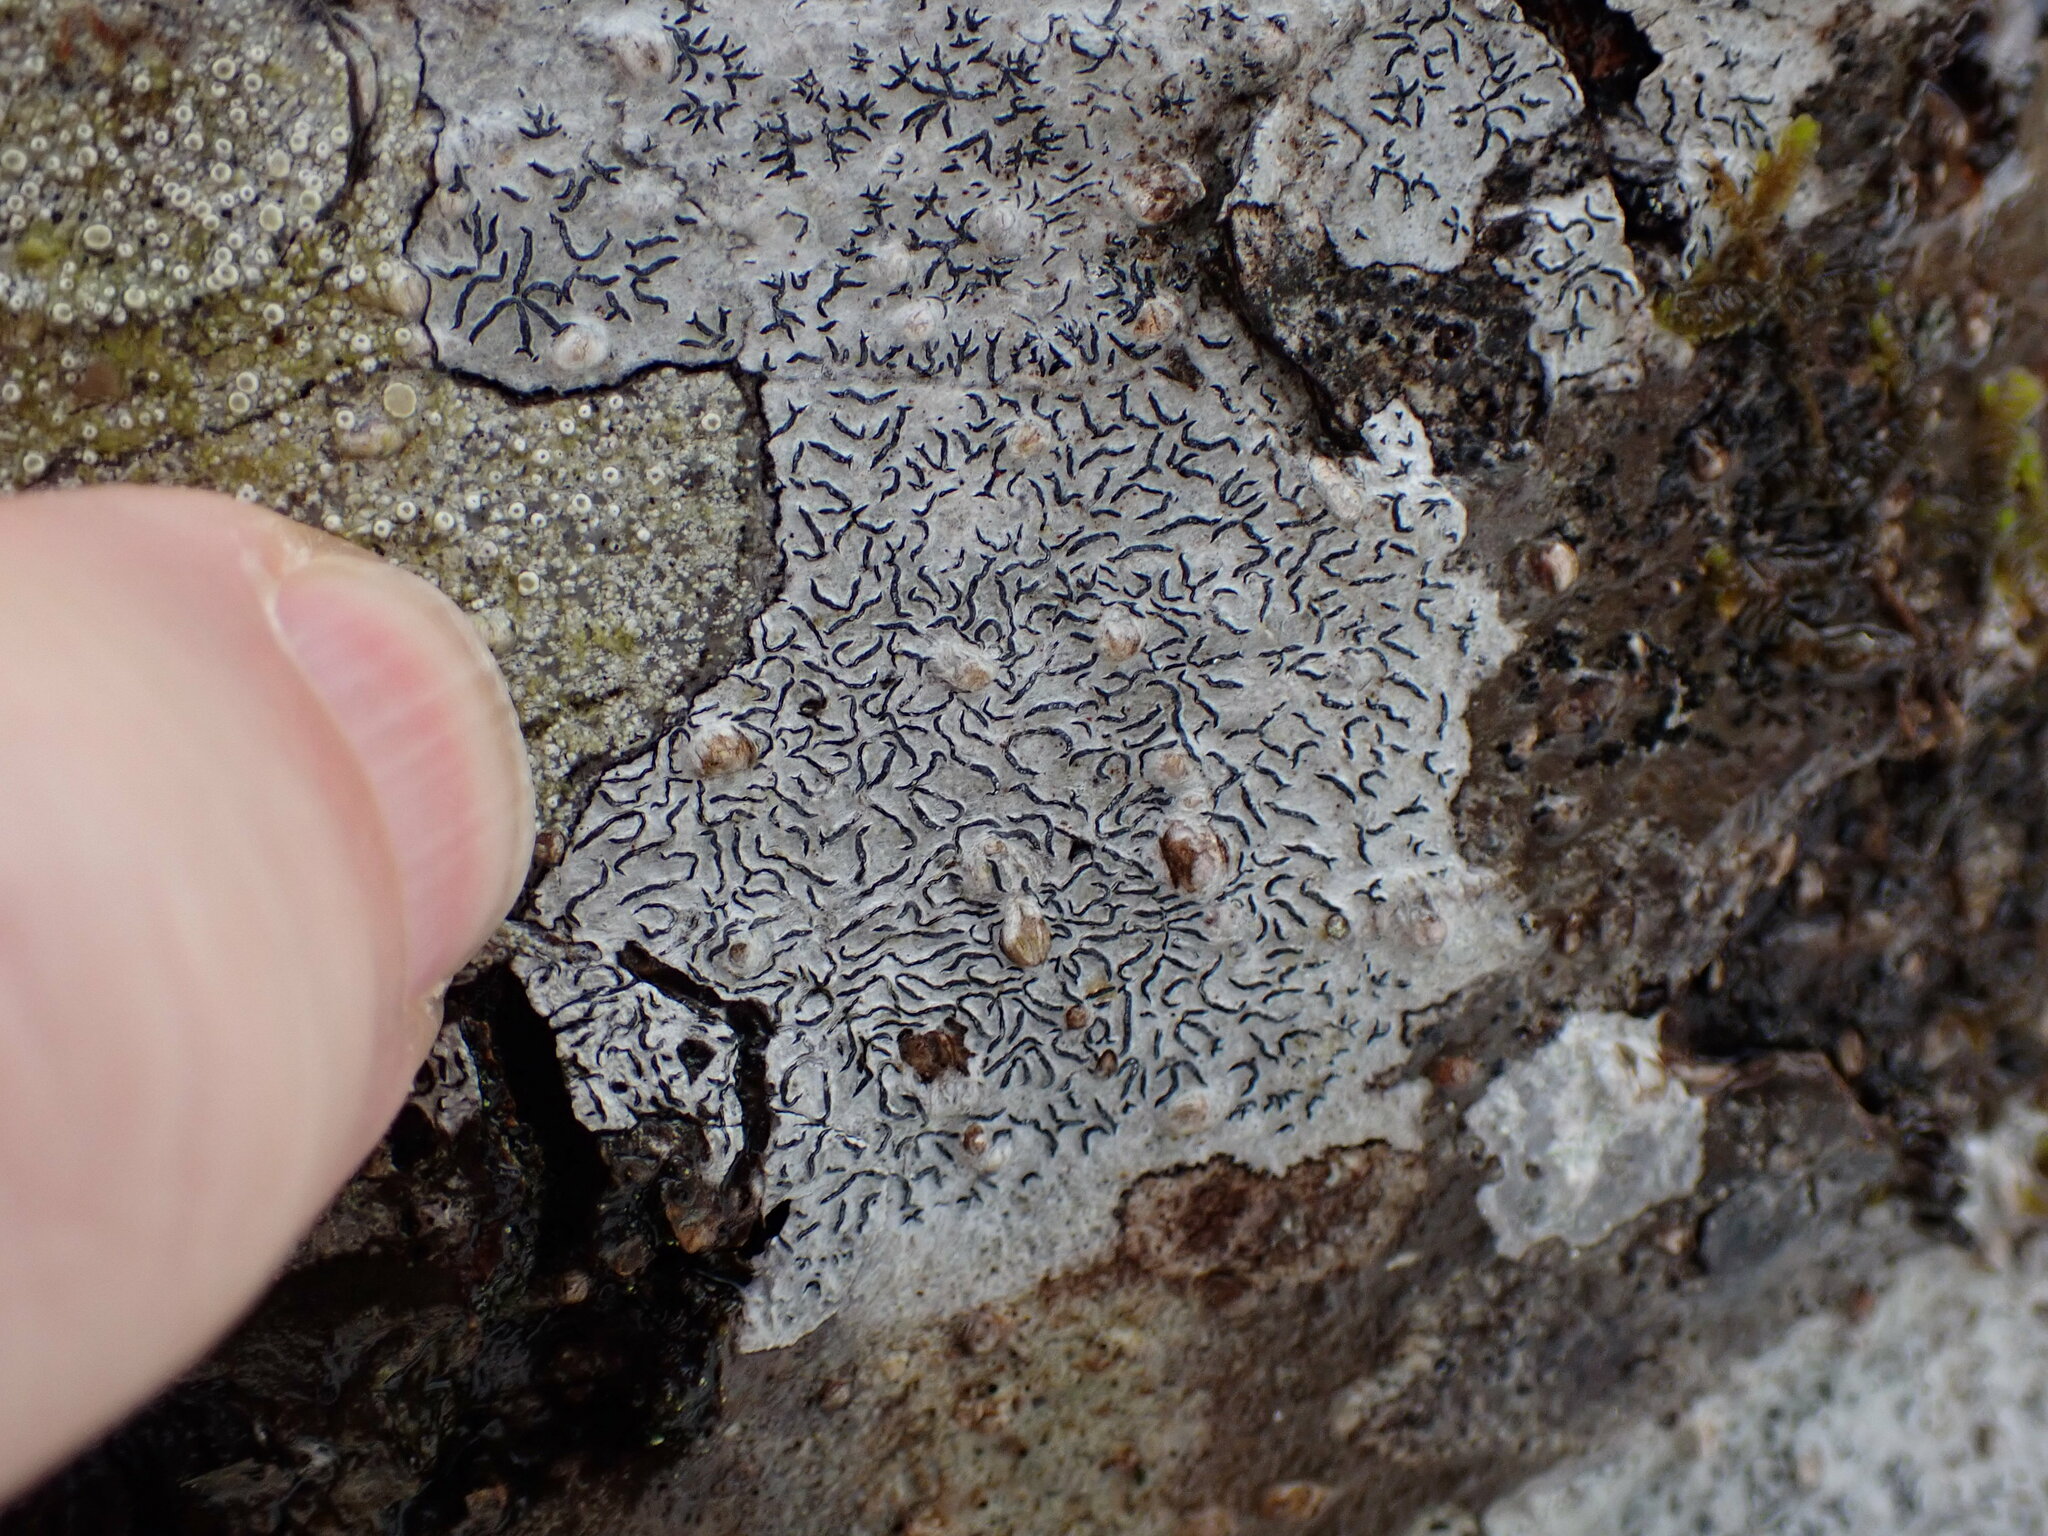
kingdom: Fungi
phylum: Ascomycota
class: Lecanoromycetes
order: Ostropales
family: Graphidaceae
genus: Graphis
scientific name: Graphis scripta
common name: Script lichen
